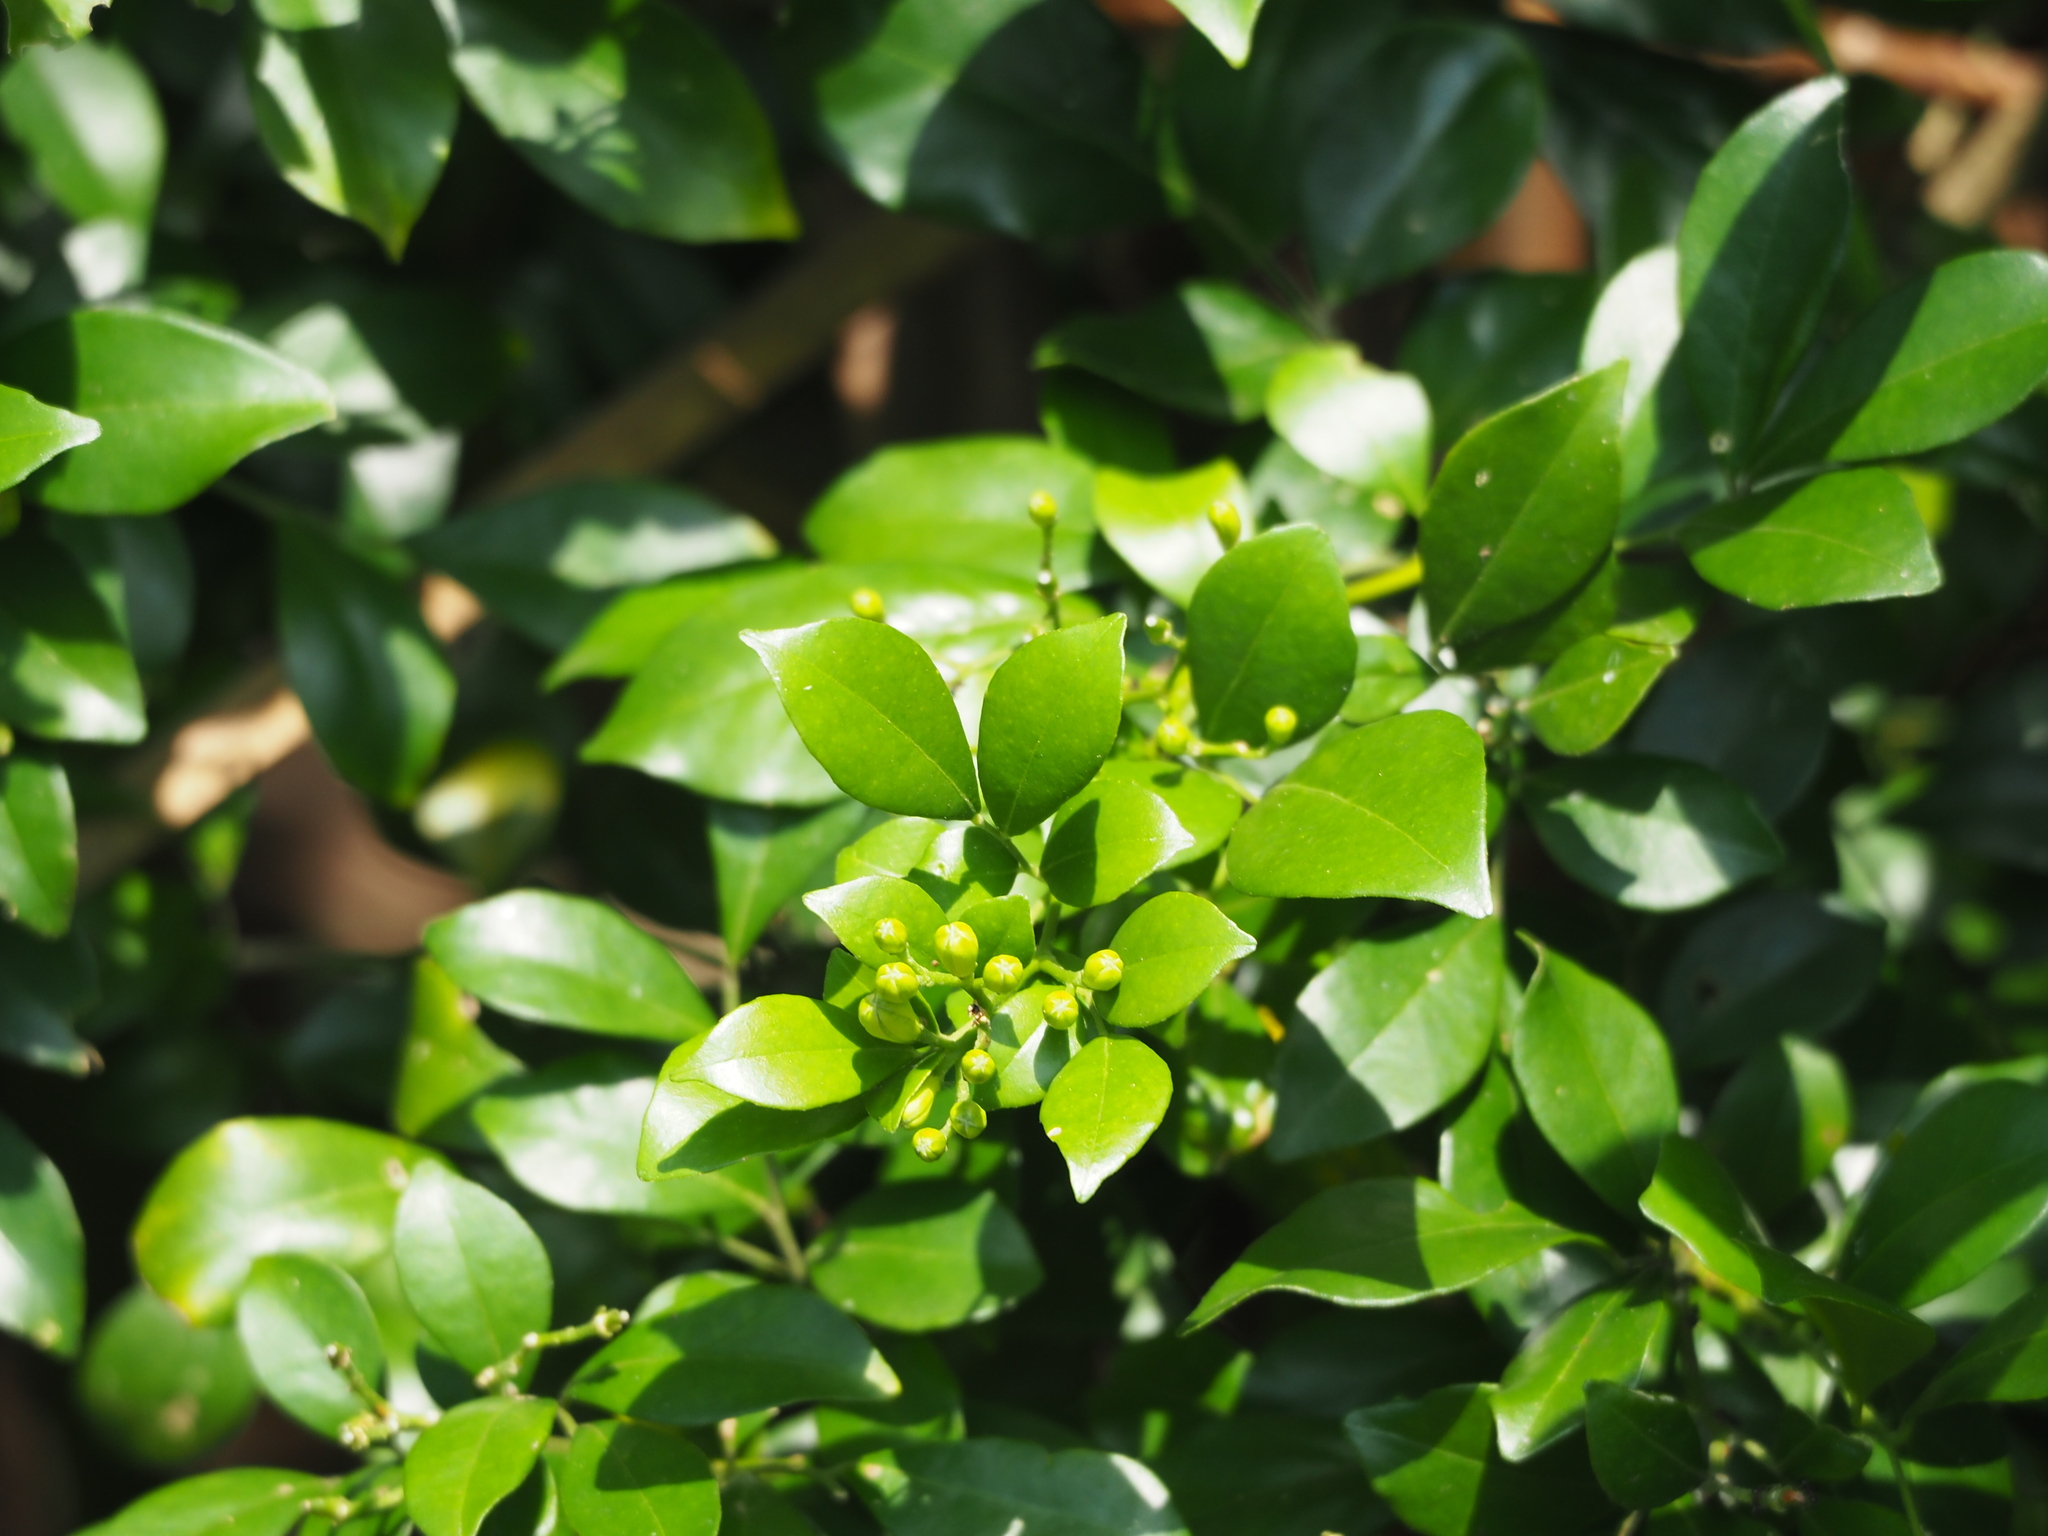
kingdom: Plantae
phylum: Tracheophyta
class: Magnoliopsida
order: Sapindales
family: Rutaceae
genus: Murraya
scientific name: Murraya paniculata
